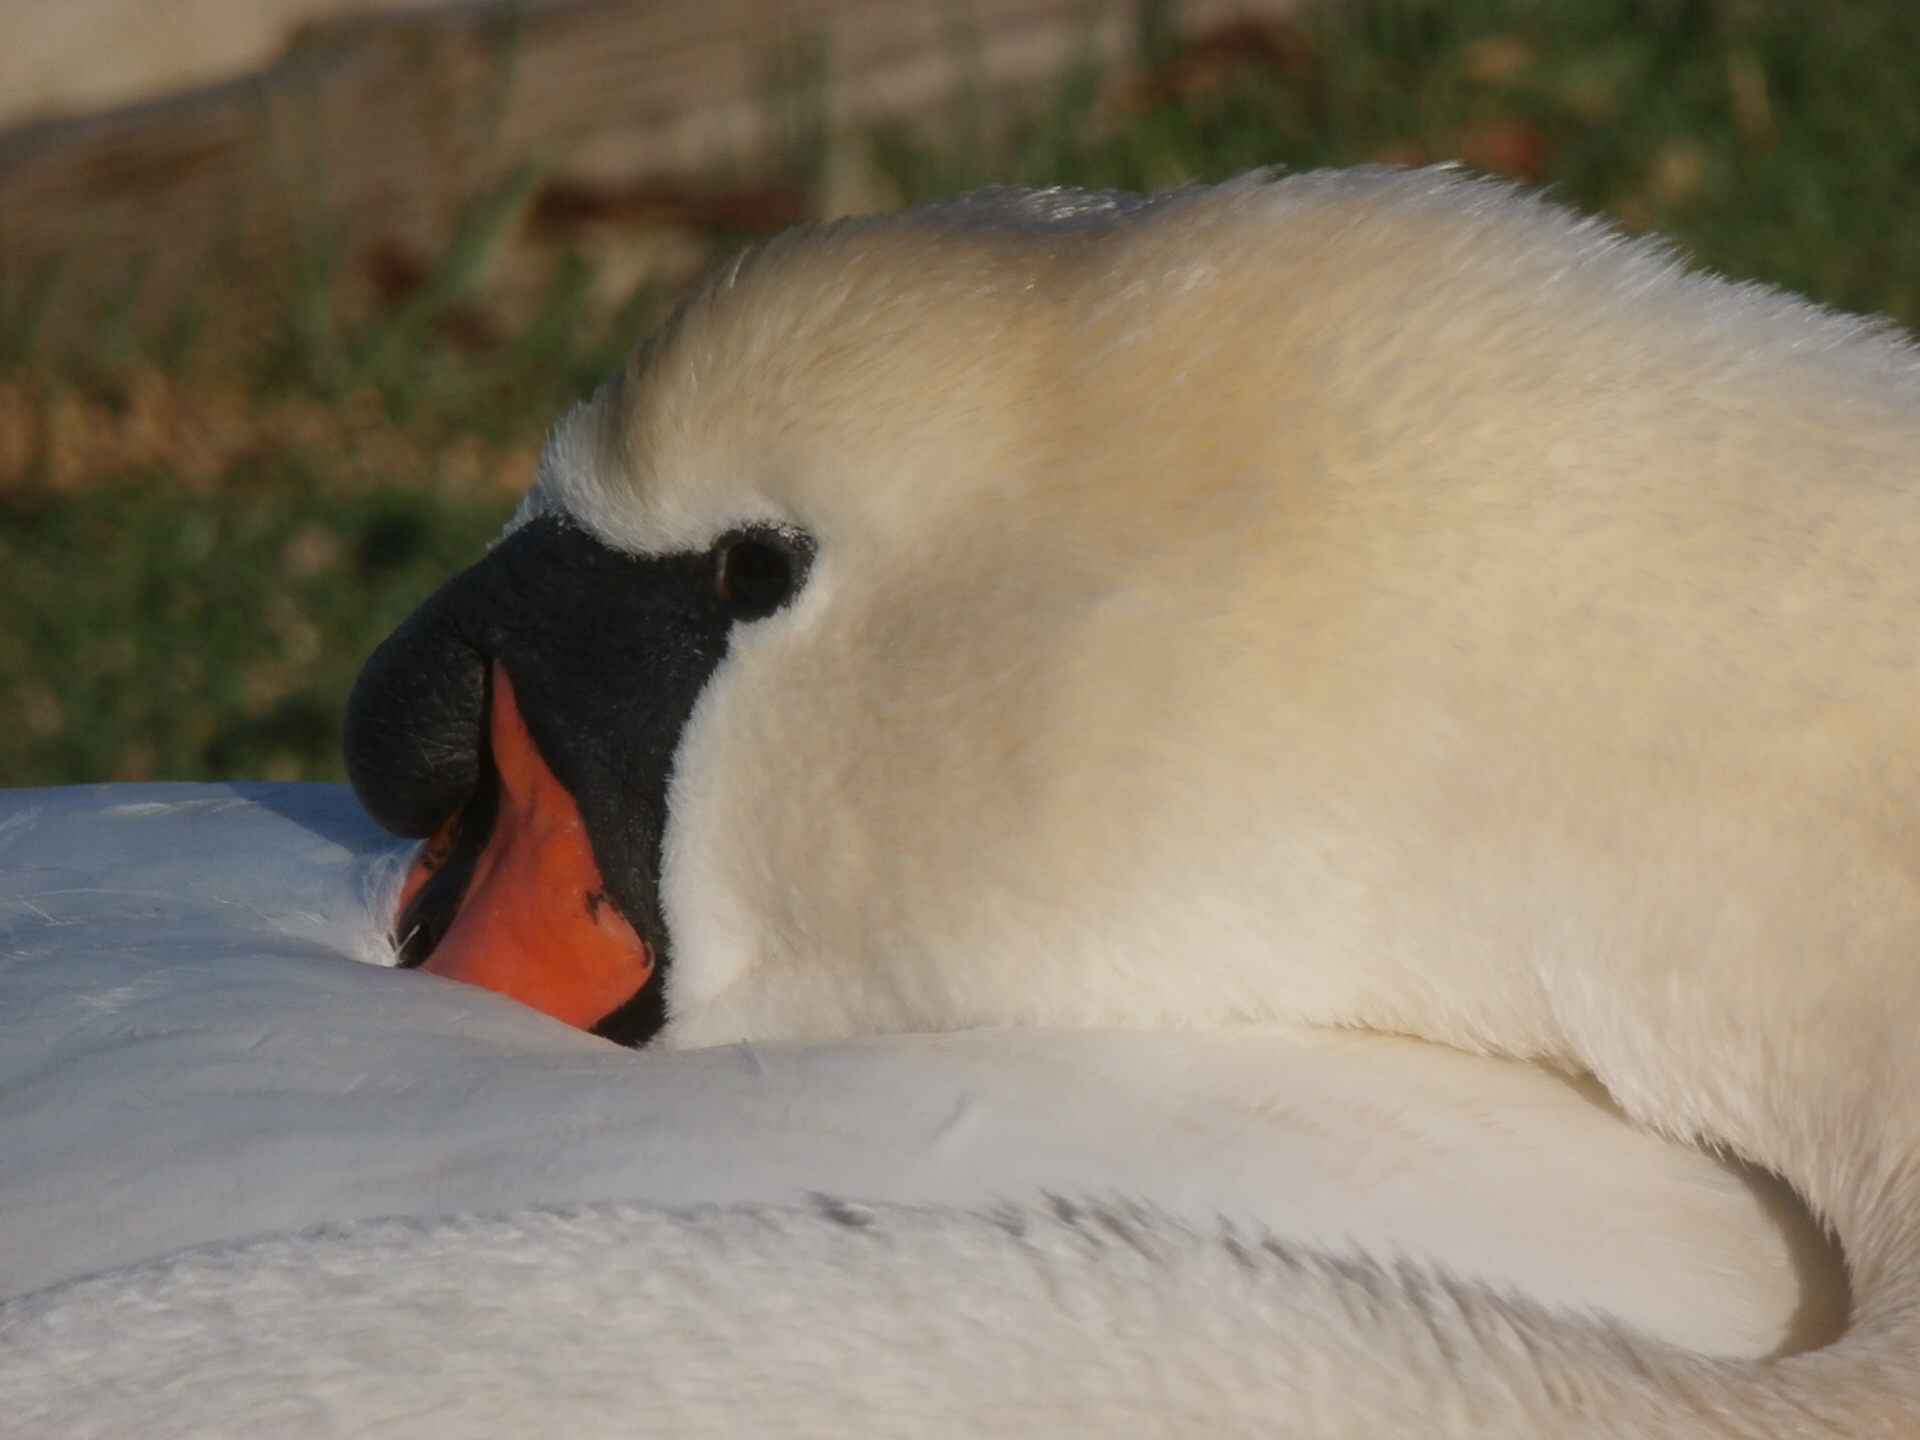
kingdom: Animalia
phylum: Chordata
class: Aves
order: Anseriformes
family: Anatidae
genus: Cygnus
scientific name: Cygnus olor
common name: Mute swan
